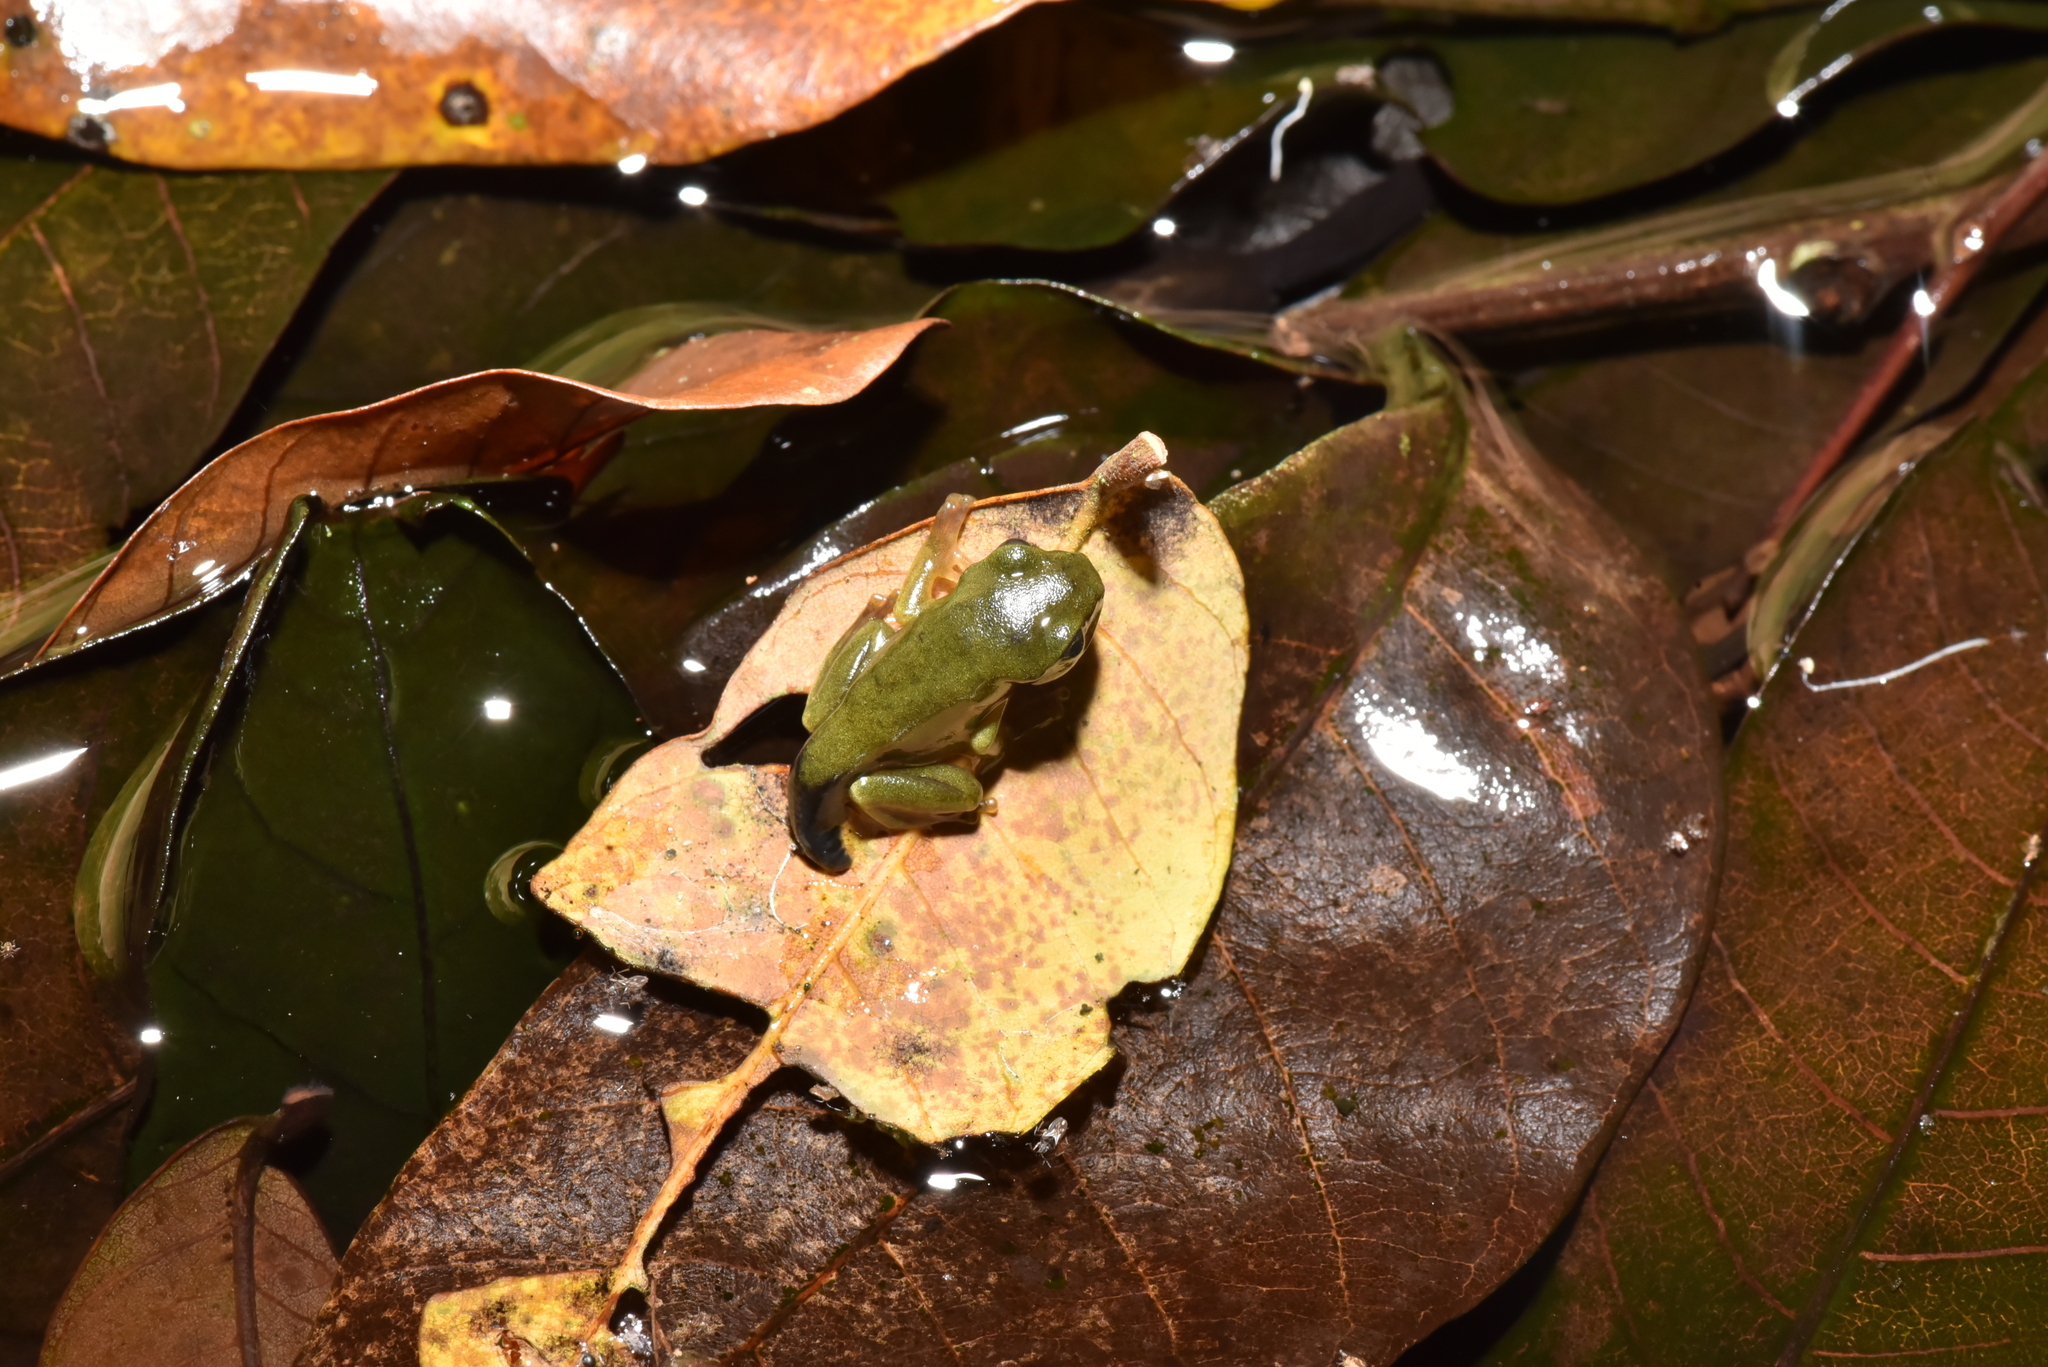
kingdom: Animalia
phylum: Chordata
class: Amphibia
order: Anura
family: Rhacophoridae
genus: Zhangixalus
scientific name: Zhangixalus moltrechti
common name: Moltrecht's treefrog
